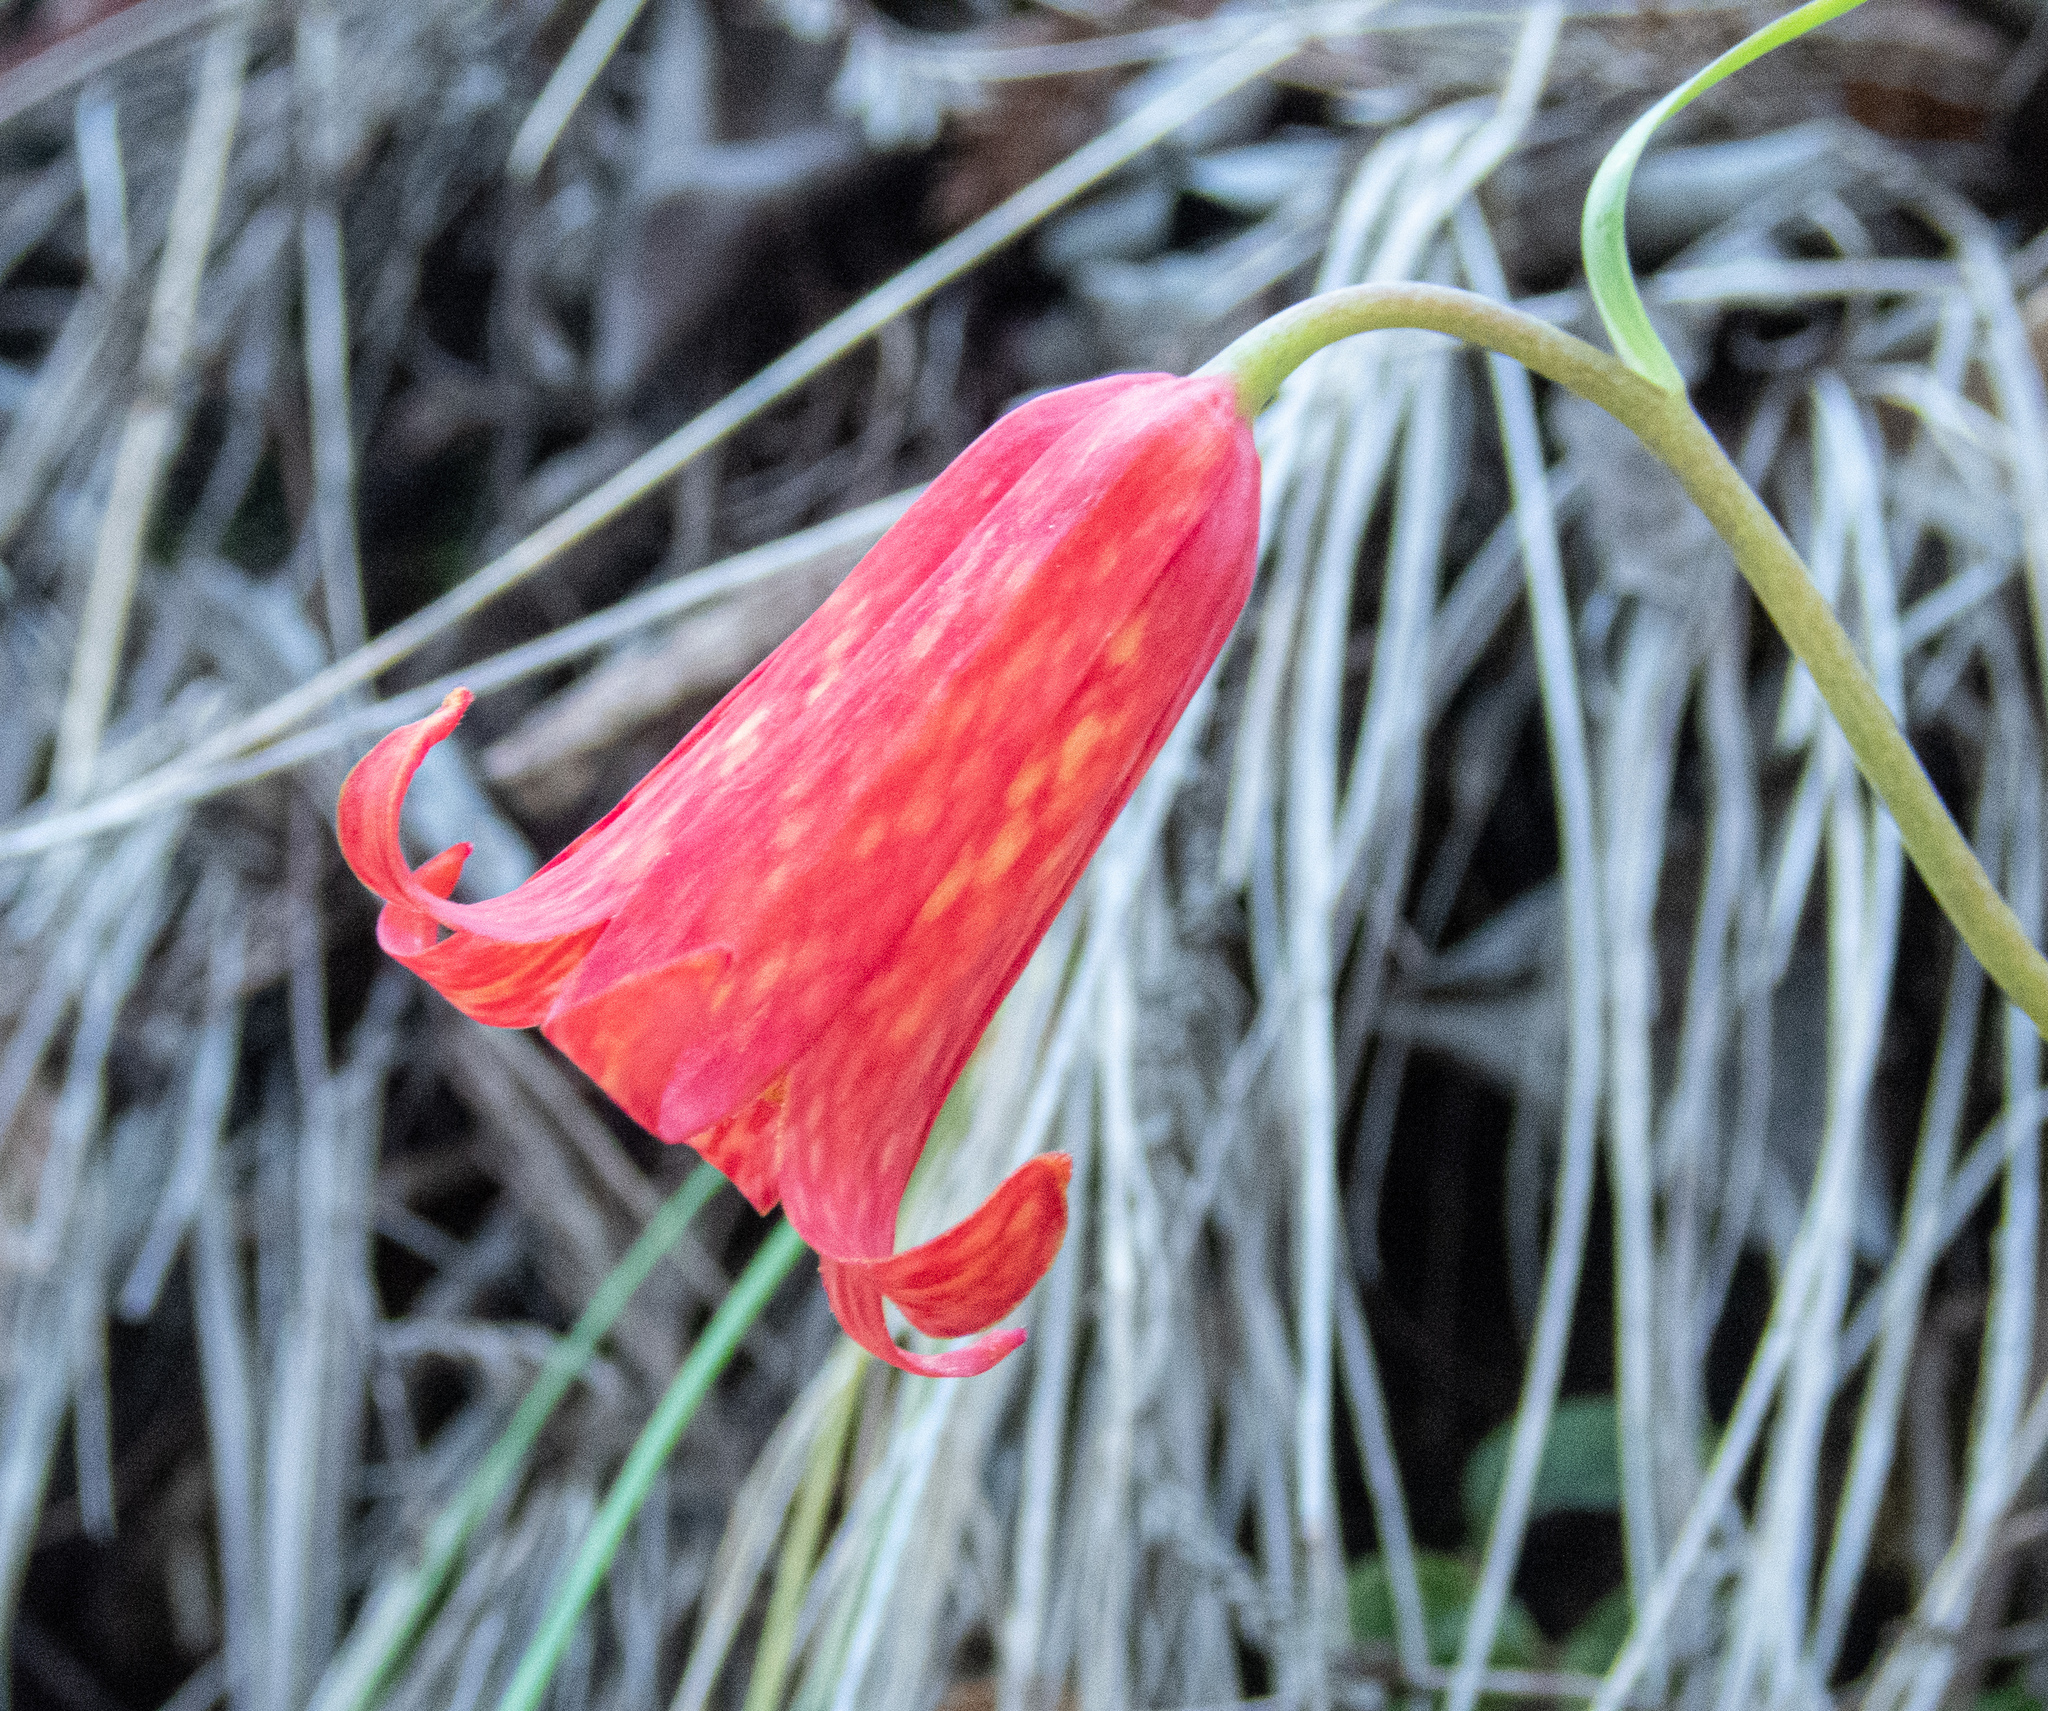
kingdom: Plantae
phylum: Tracheophyta
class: Liliopsida
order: Liliales
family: Liliaceae
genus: Fritillaria
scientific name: Fritillaria recurva
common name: Scarlet fritillary
